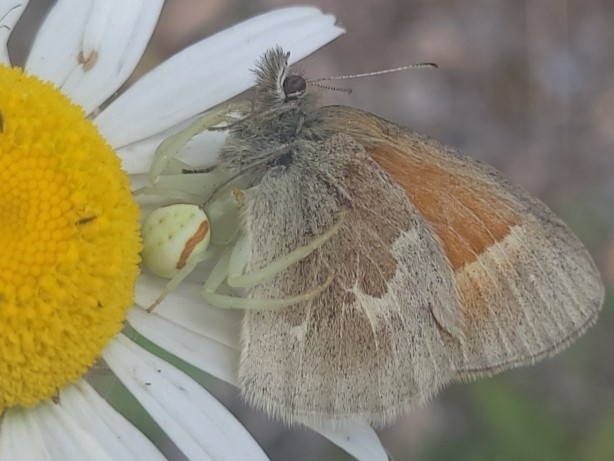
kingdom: Animalia
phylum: Arthropoda
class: Arachnida
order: Araneae
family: Thomisidae
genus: Misumena
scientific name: Misumena vatia
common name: Goldenrod crab spider
